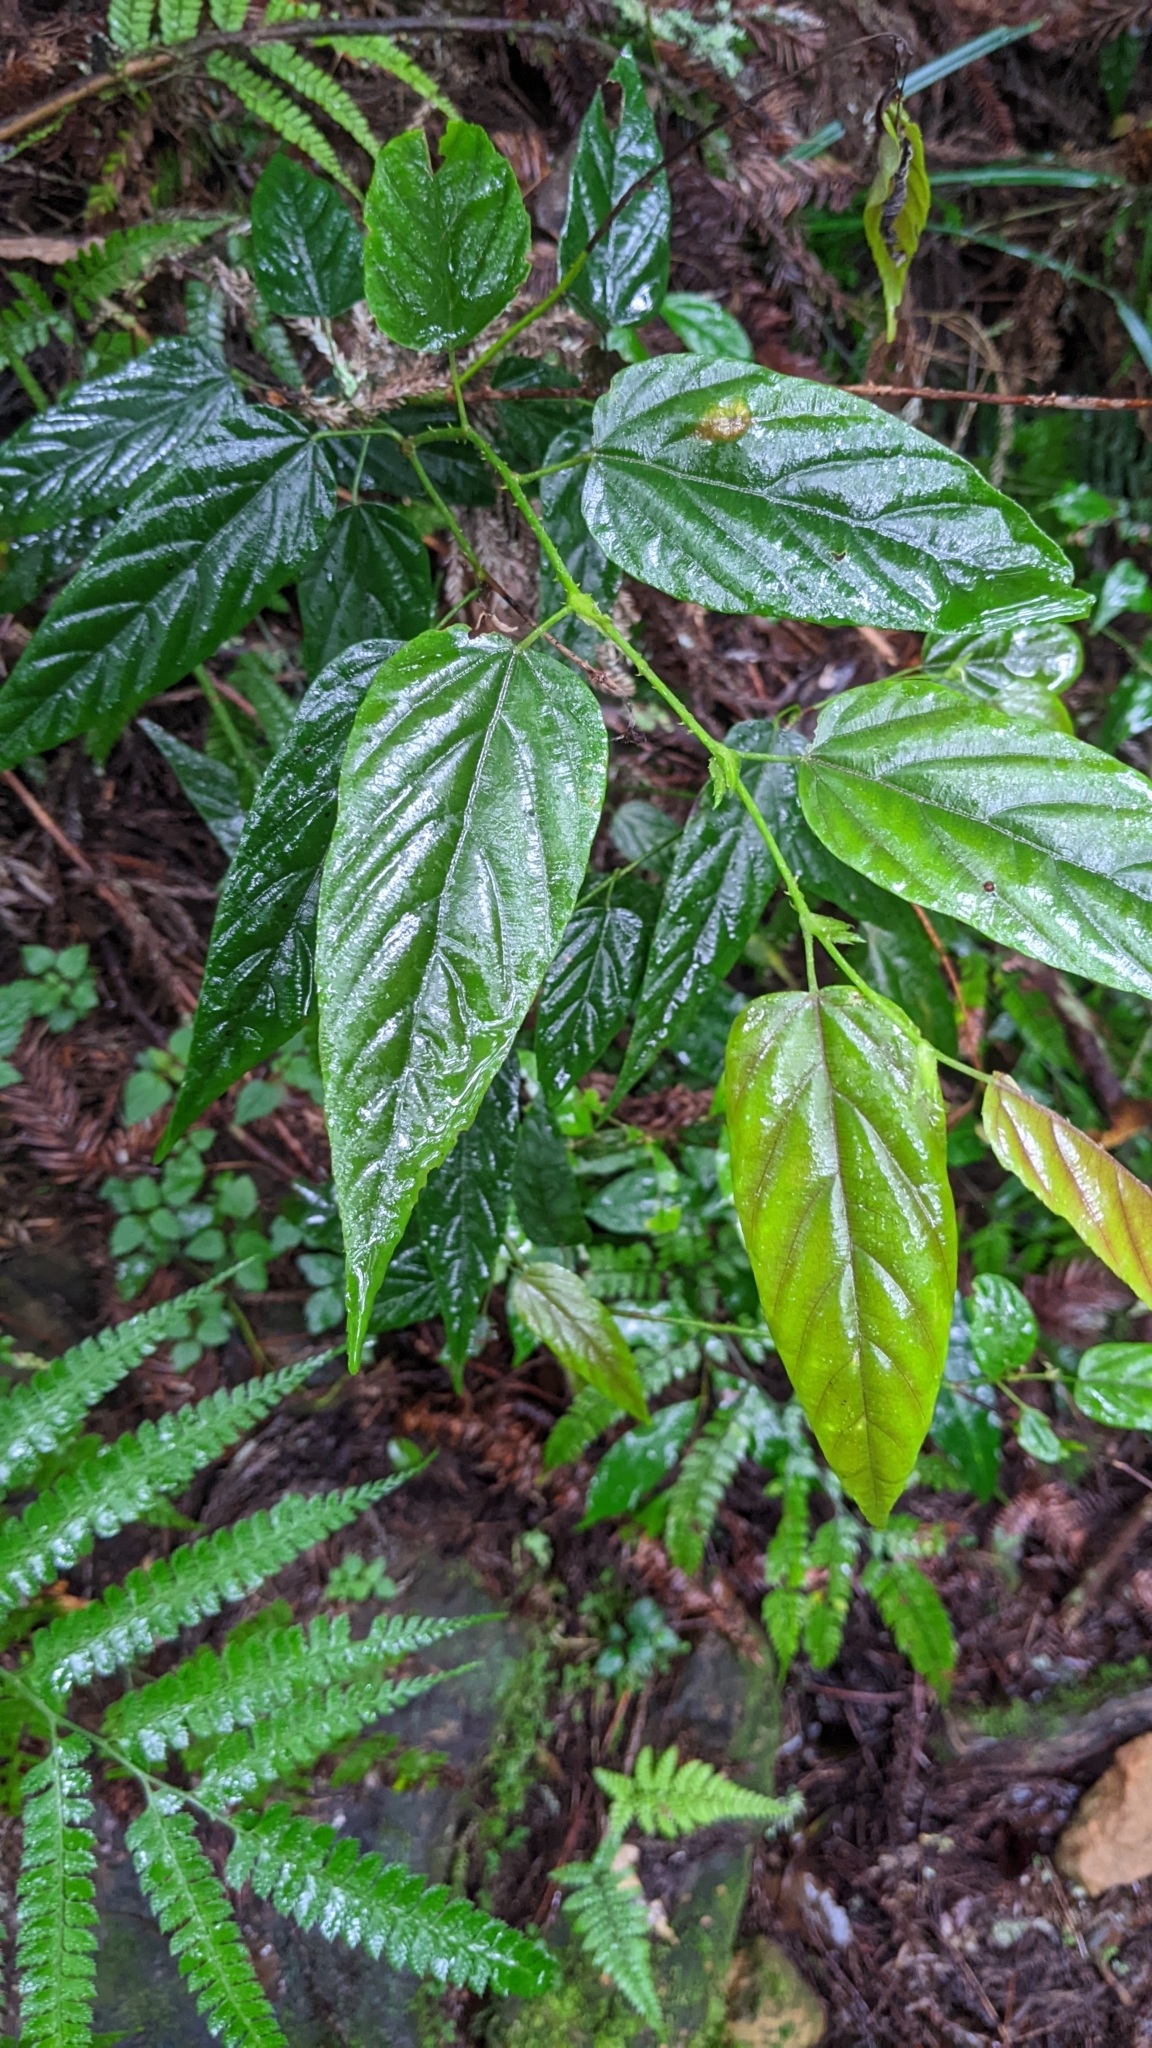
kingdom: Plantae
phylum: Tracheophyta
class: Magnoliopsida
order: Rosales
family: Rosaceae
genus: Rubus
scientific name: Rubus kawakamii
